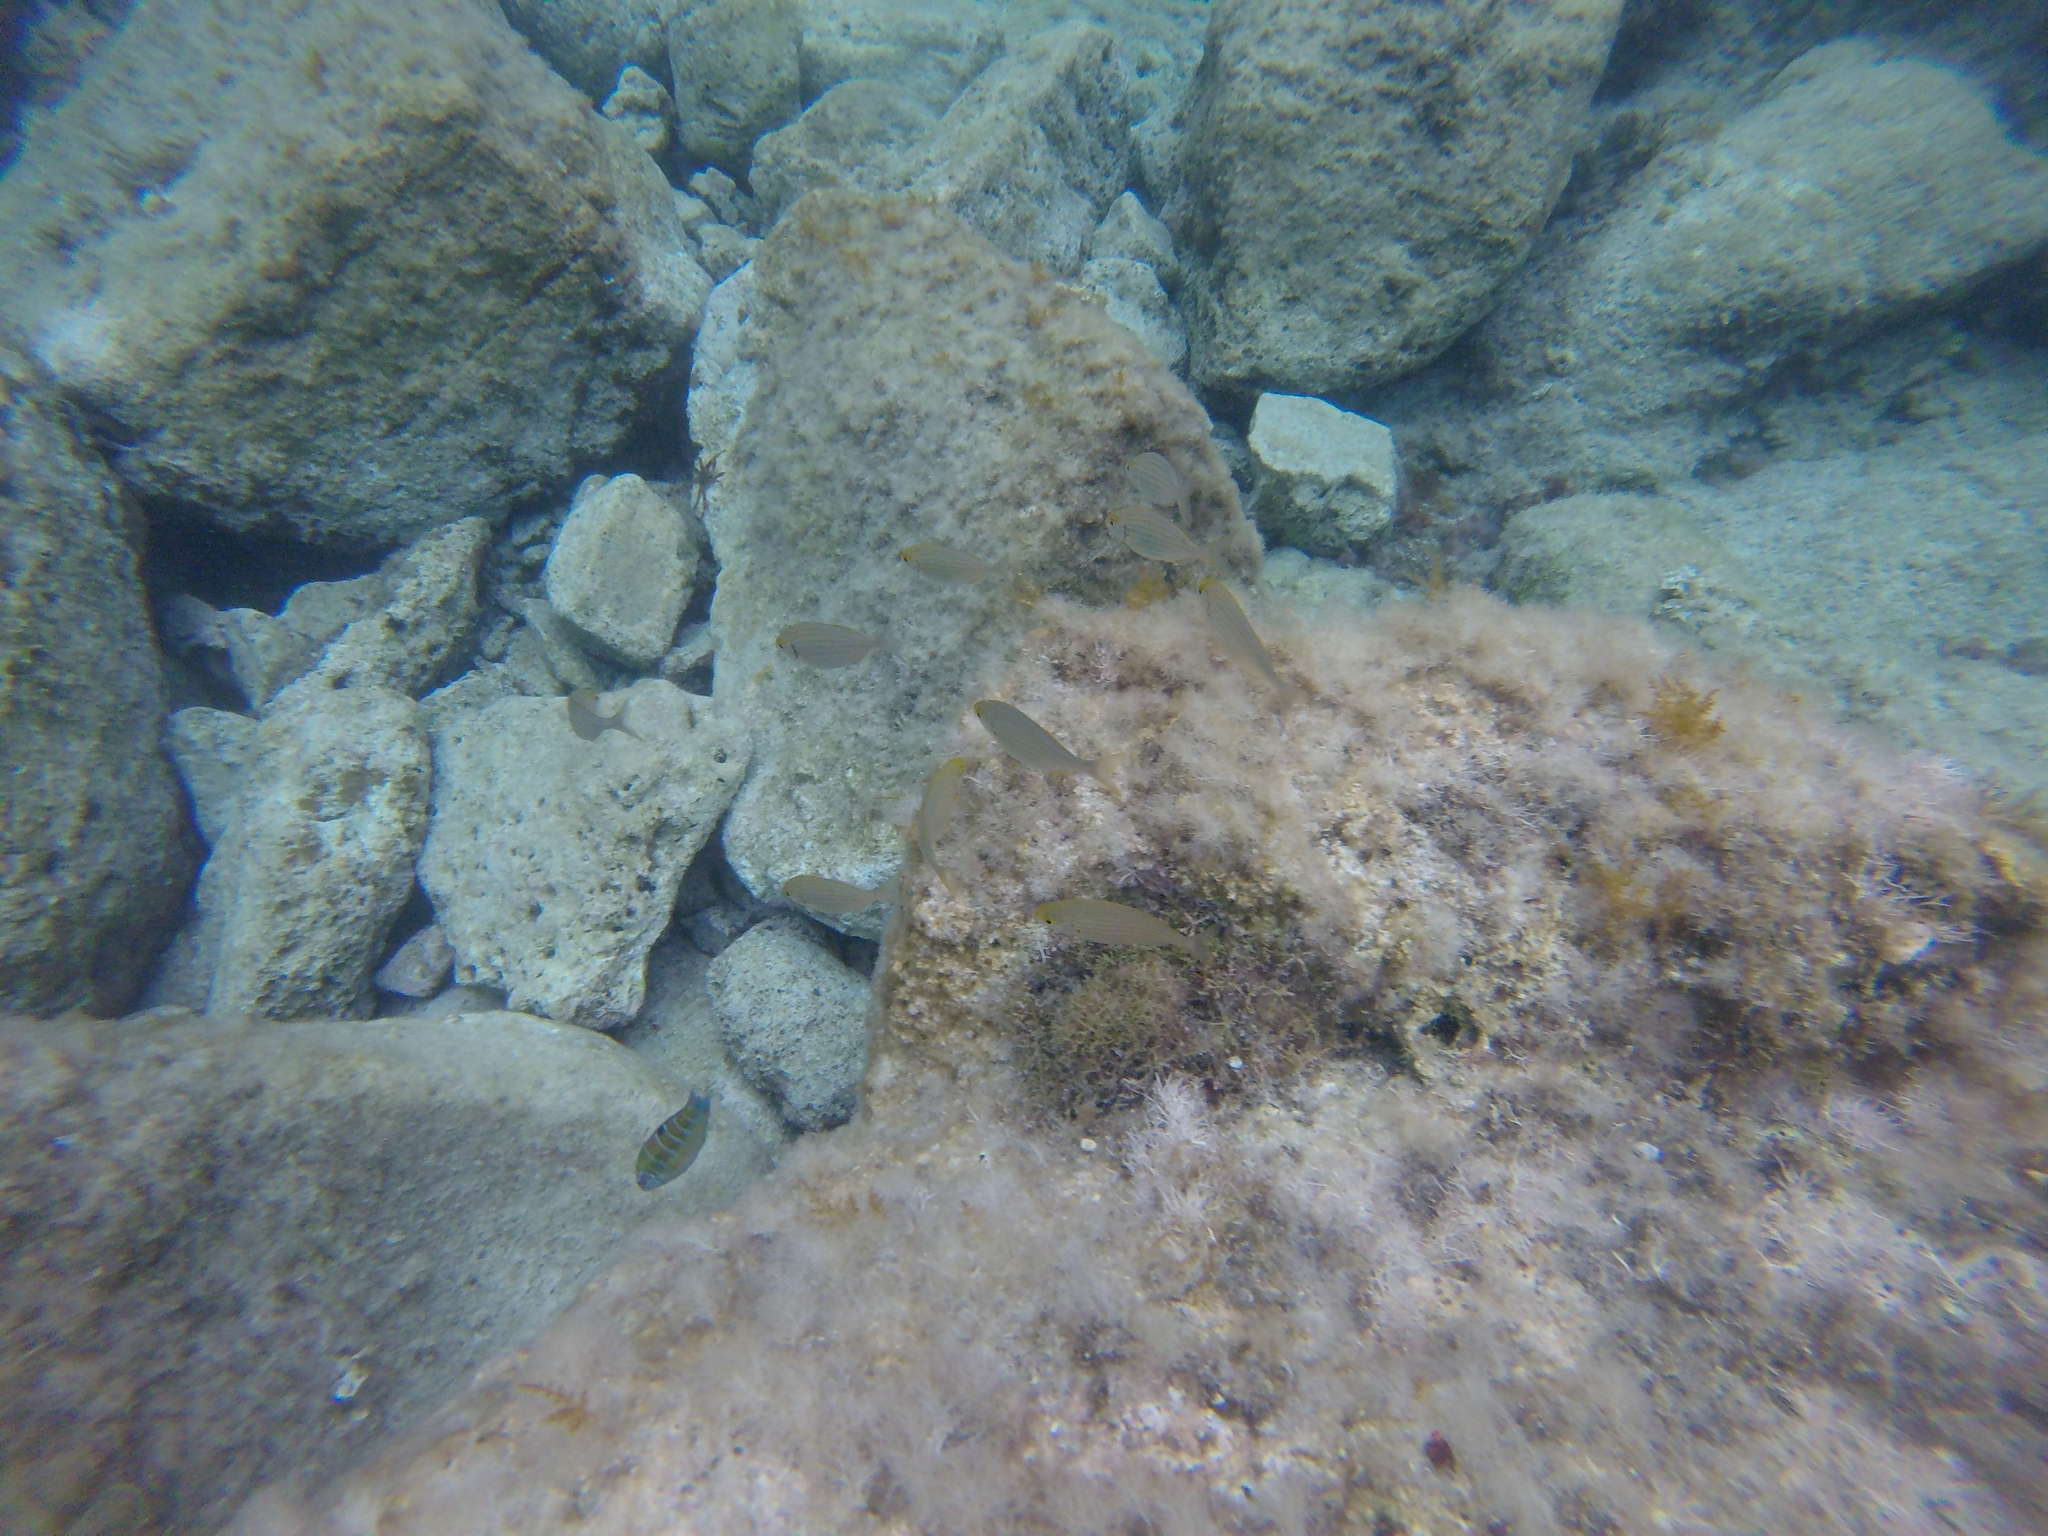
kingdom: Animalia
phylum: Chordata
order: Perciformes
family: Sparidae
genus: Sarpa
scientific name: Sarpa salpa
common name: Salema
